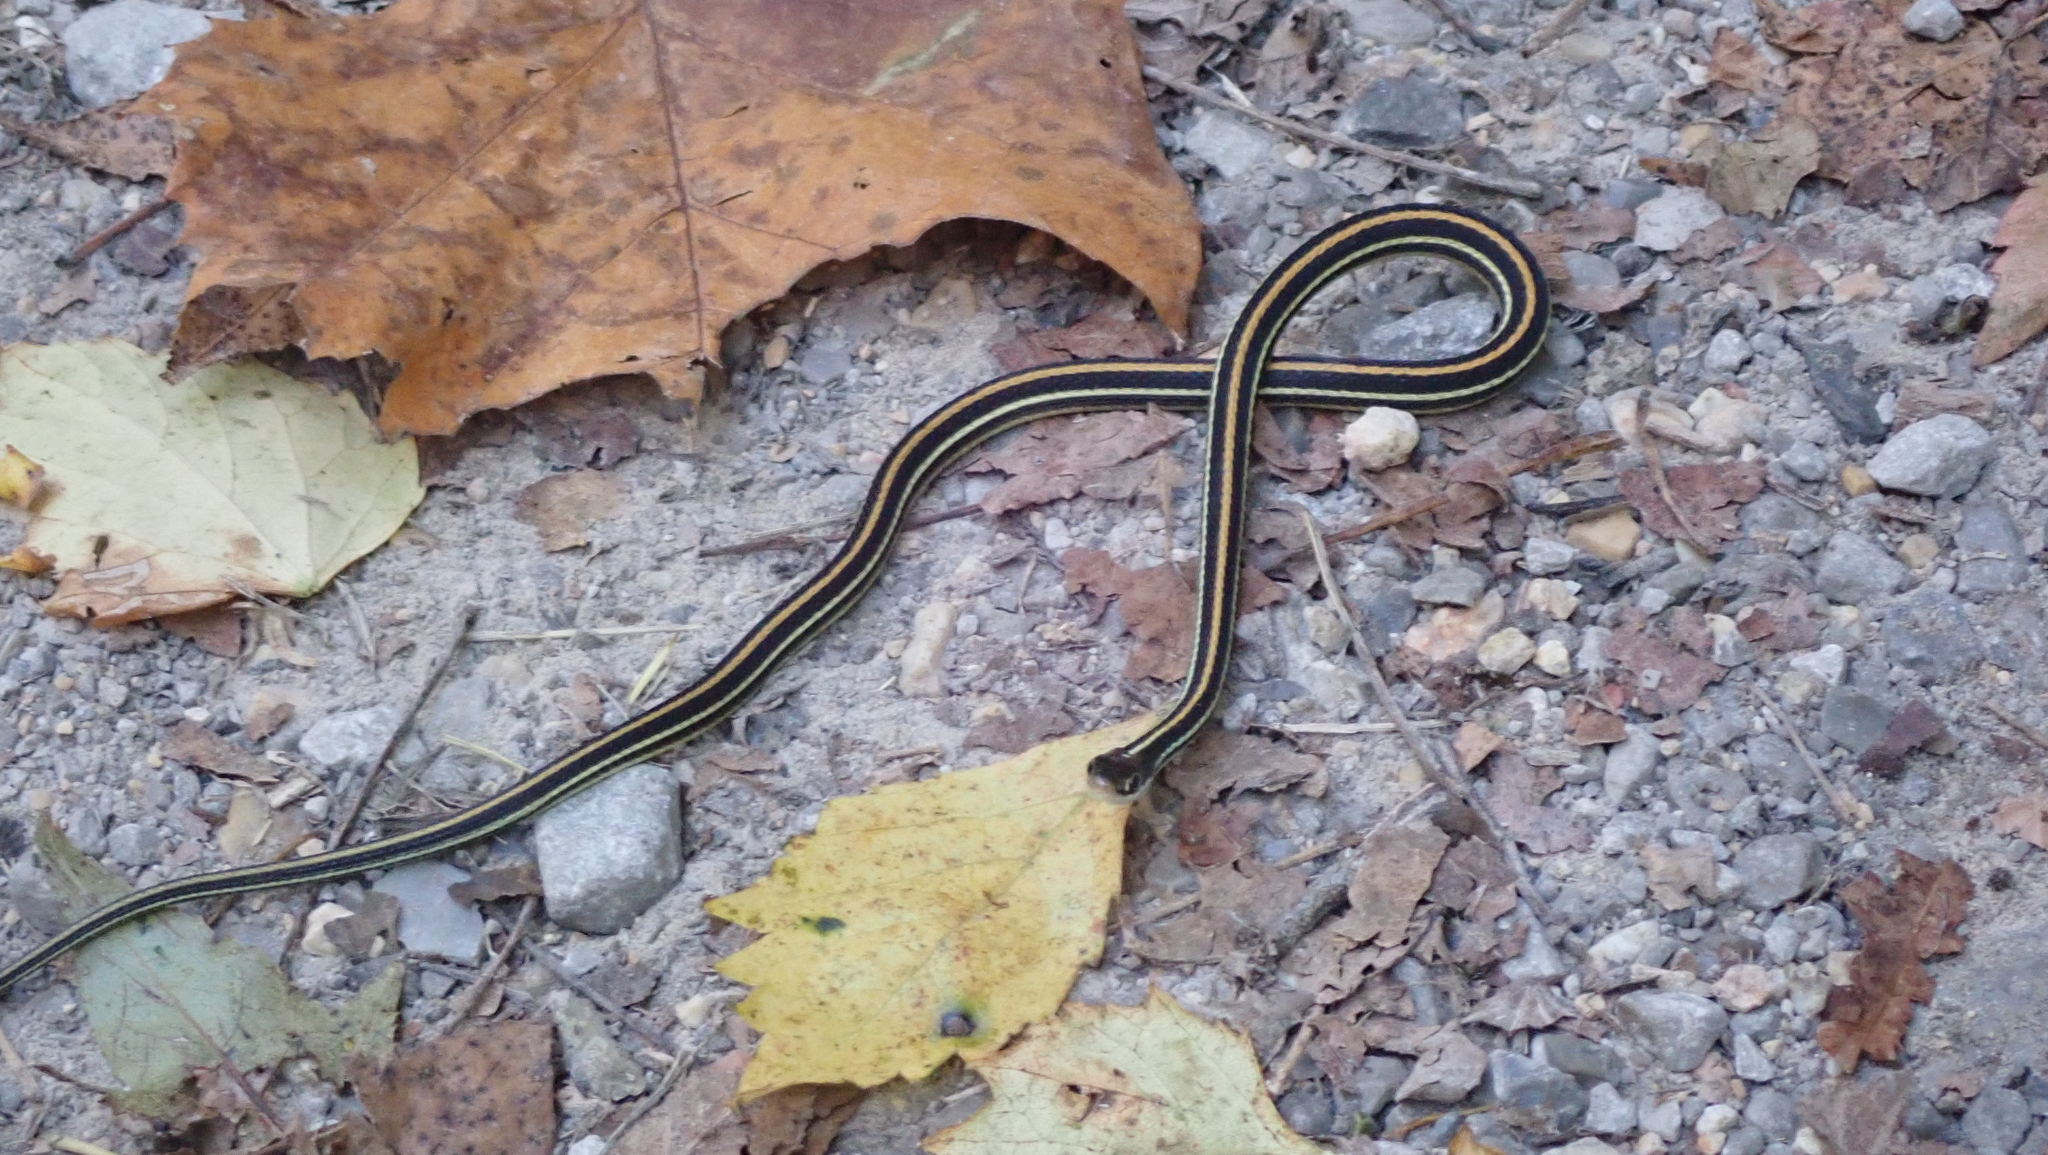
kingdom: Animalia
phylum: Chordata
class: Squamata
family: Colubridae
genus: Thamnophis
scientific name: Thamnophis proximus
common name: Western ribbon snake
